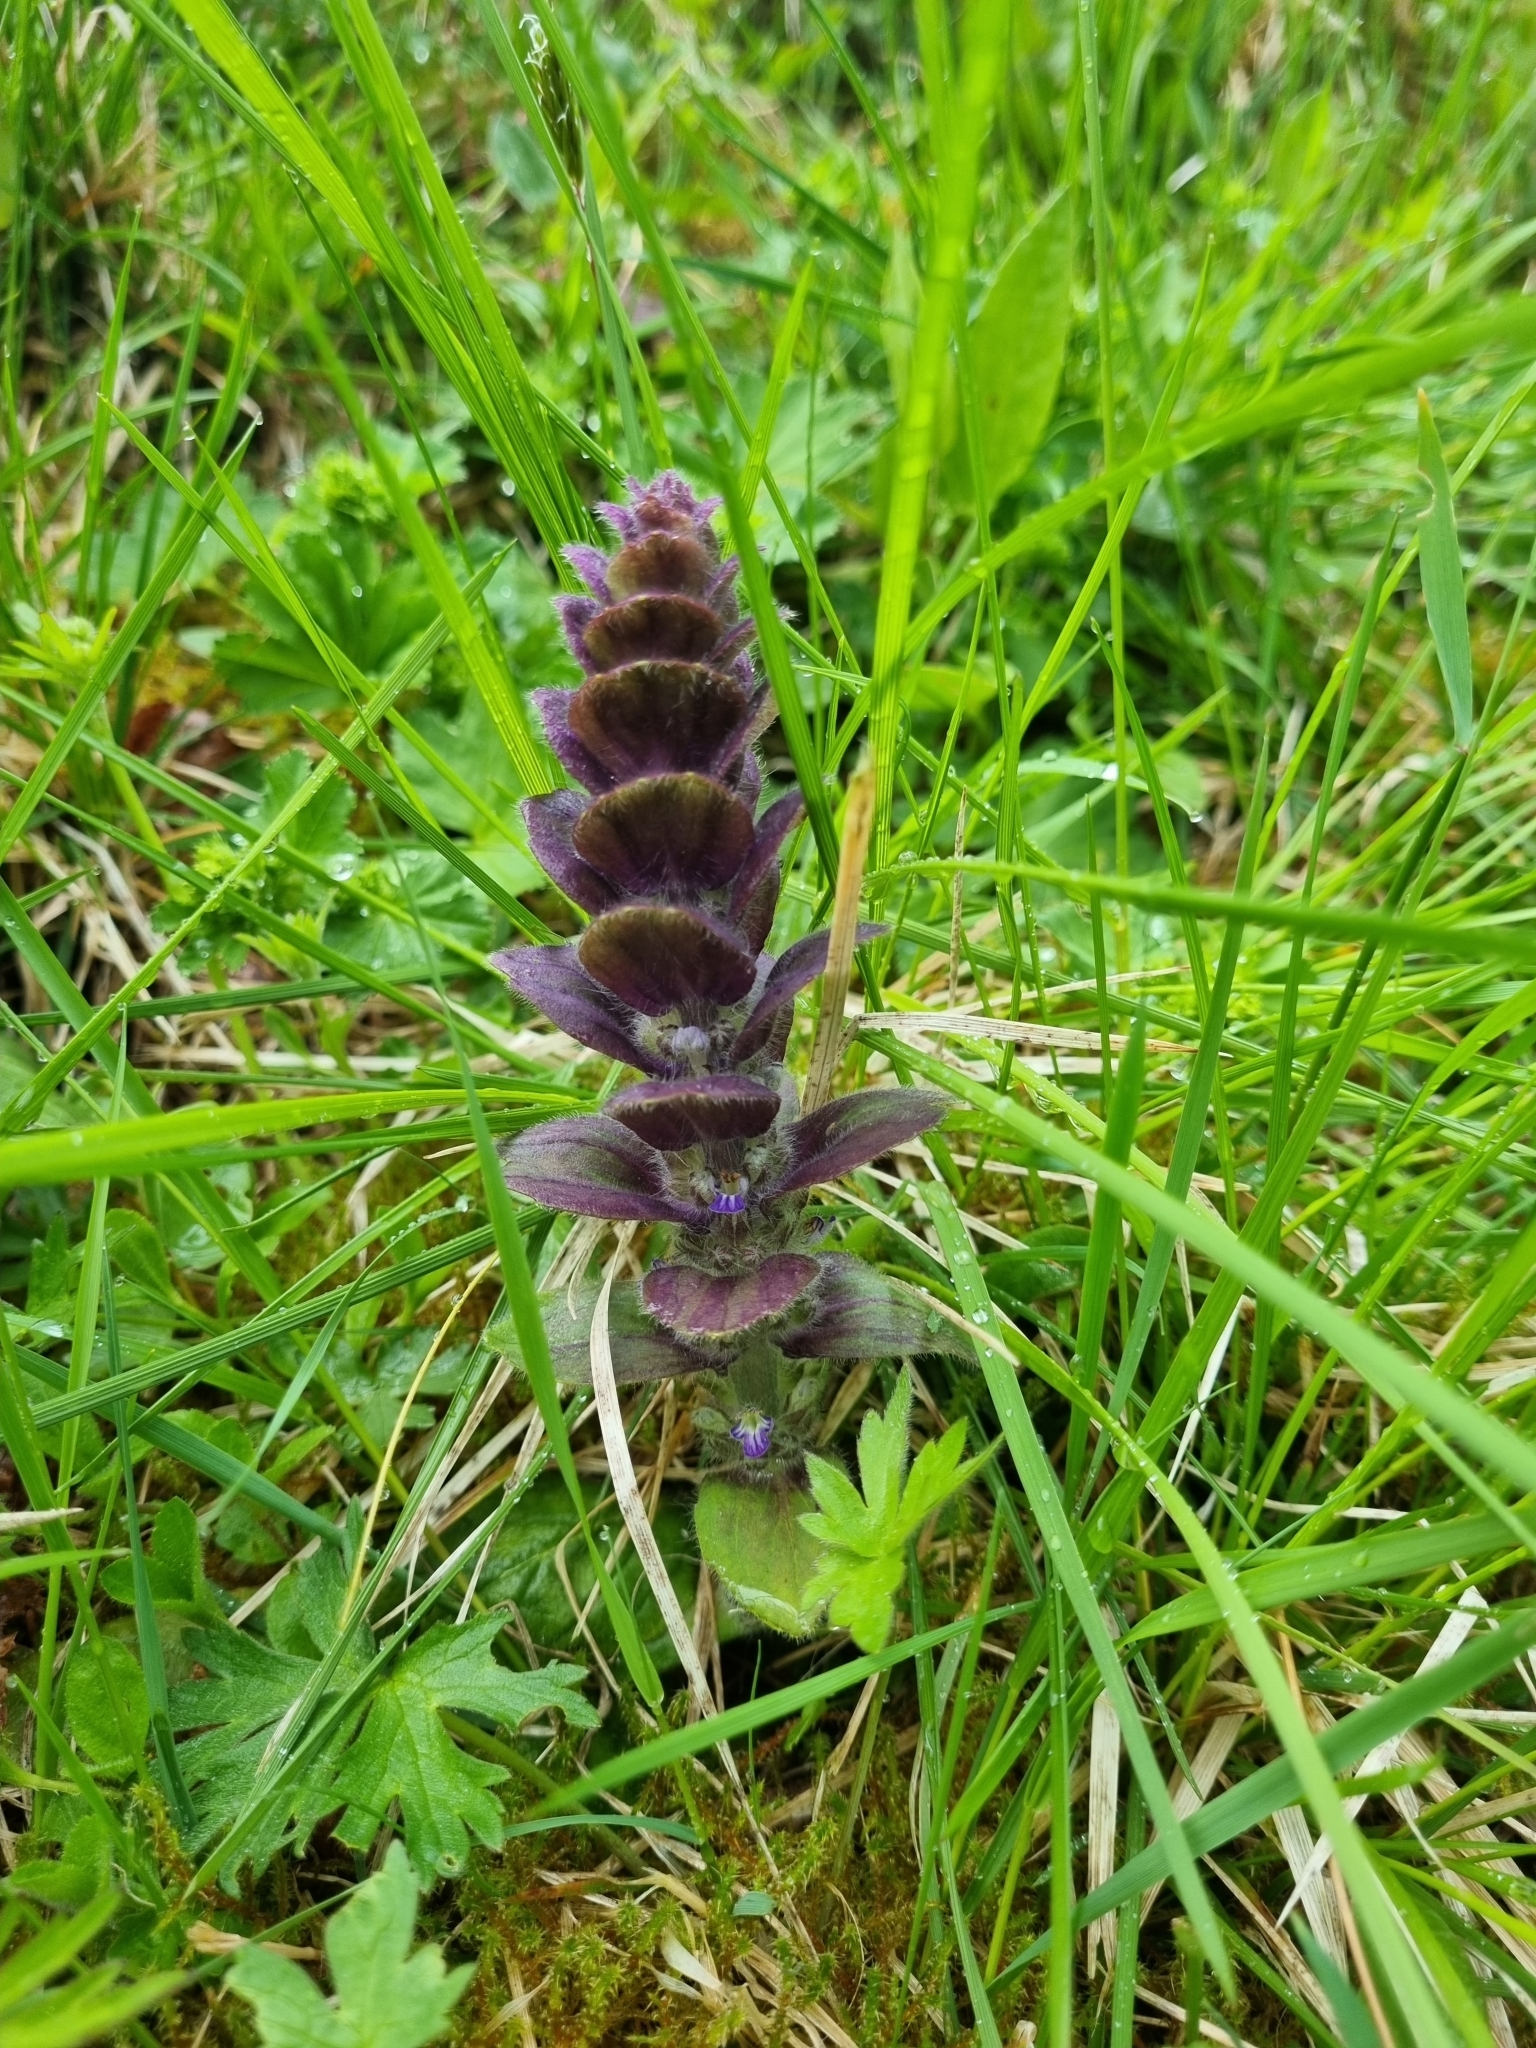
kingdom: Plantae
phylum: Tracheophyta
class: Magnoliopsida
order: Lamiales
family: Lamiaceae
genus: Ajuga
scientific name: Ajuga pyramidalis
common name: Pyramid bugle
